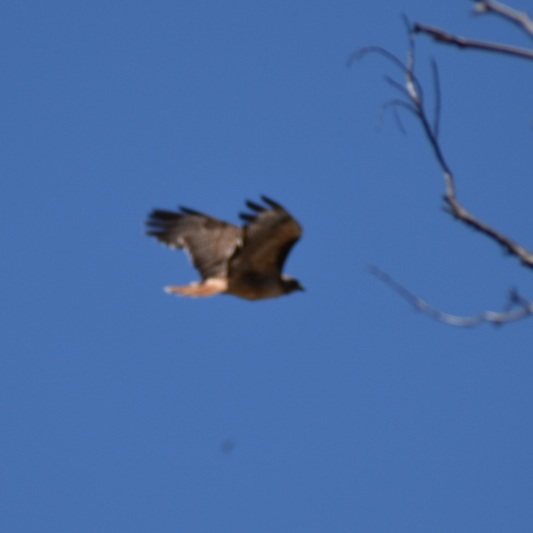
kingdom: Animalia
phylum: Chordata
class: Aves
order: Accipitriformes
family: Accipitridae
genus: Buteo
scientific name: Buteo jamaicensis
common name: Red-tailed hawk
